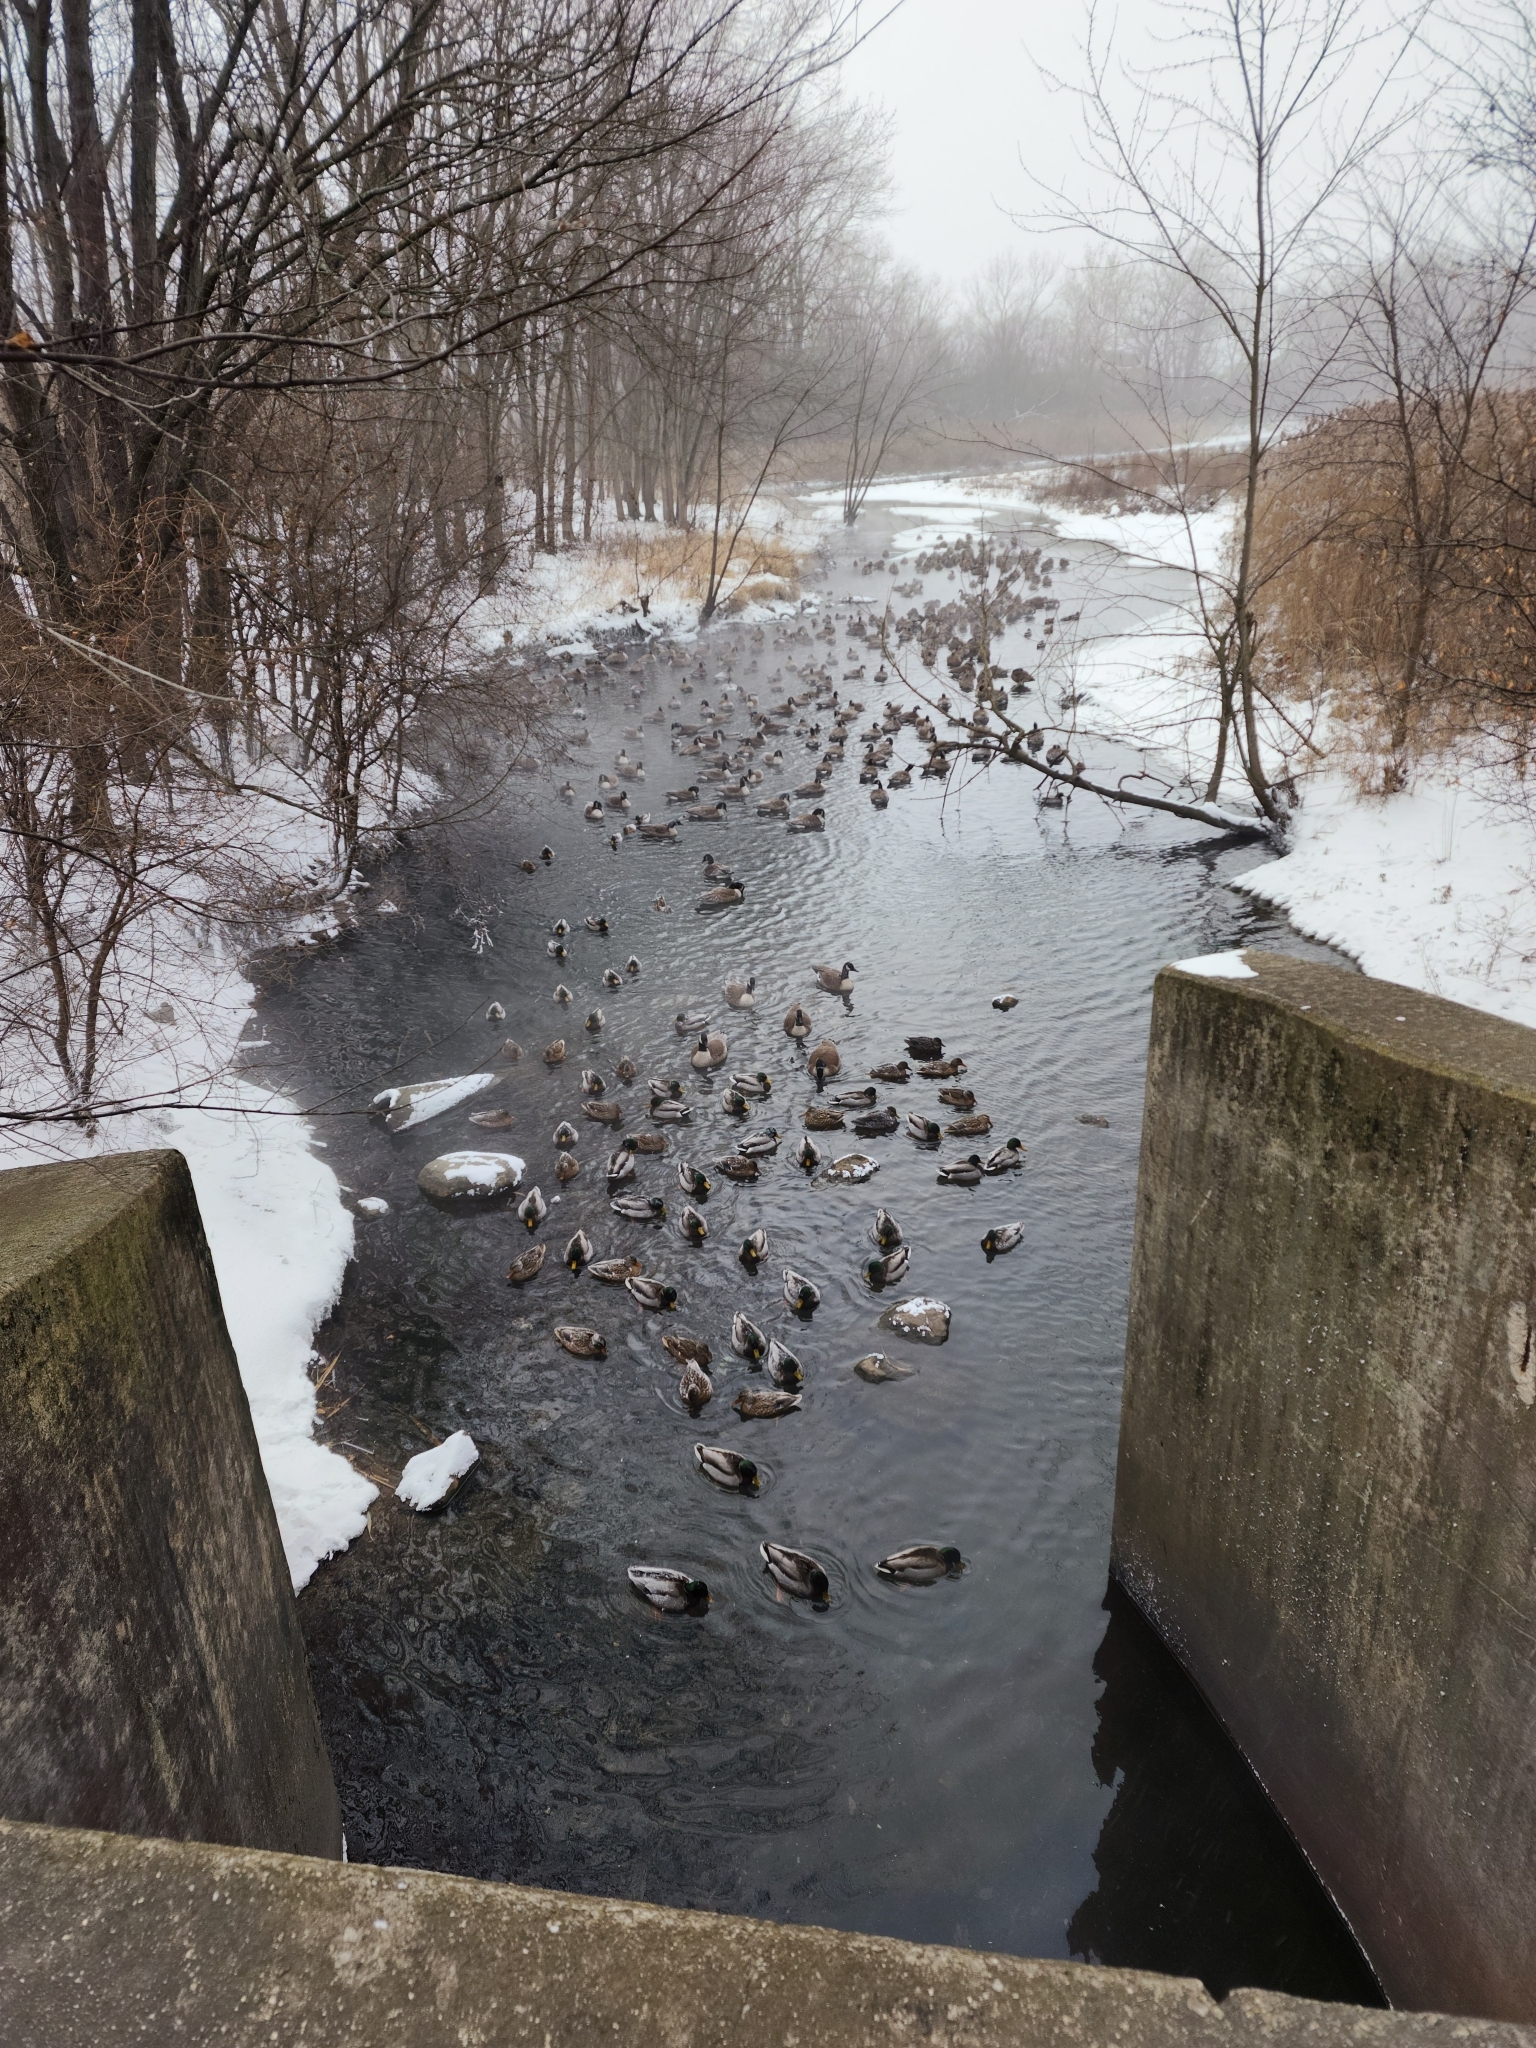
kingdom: Animalia
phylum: Chordata
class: Aves
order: Anseriformes
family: Anatidae
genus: Branta
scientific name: Branta canadensis
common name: Canada goose
